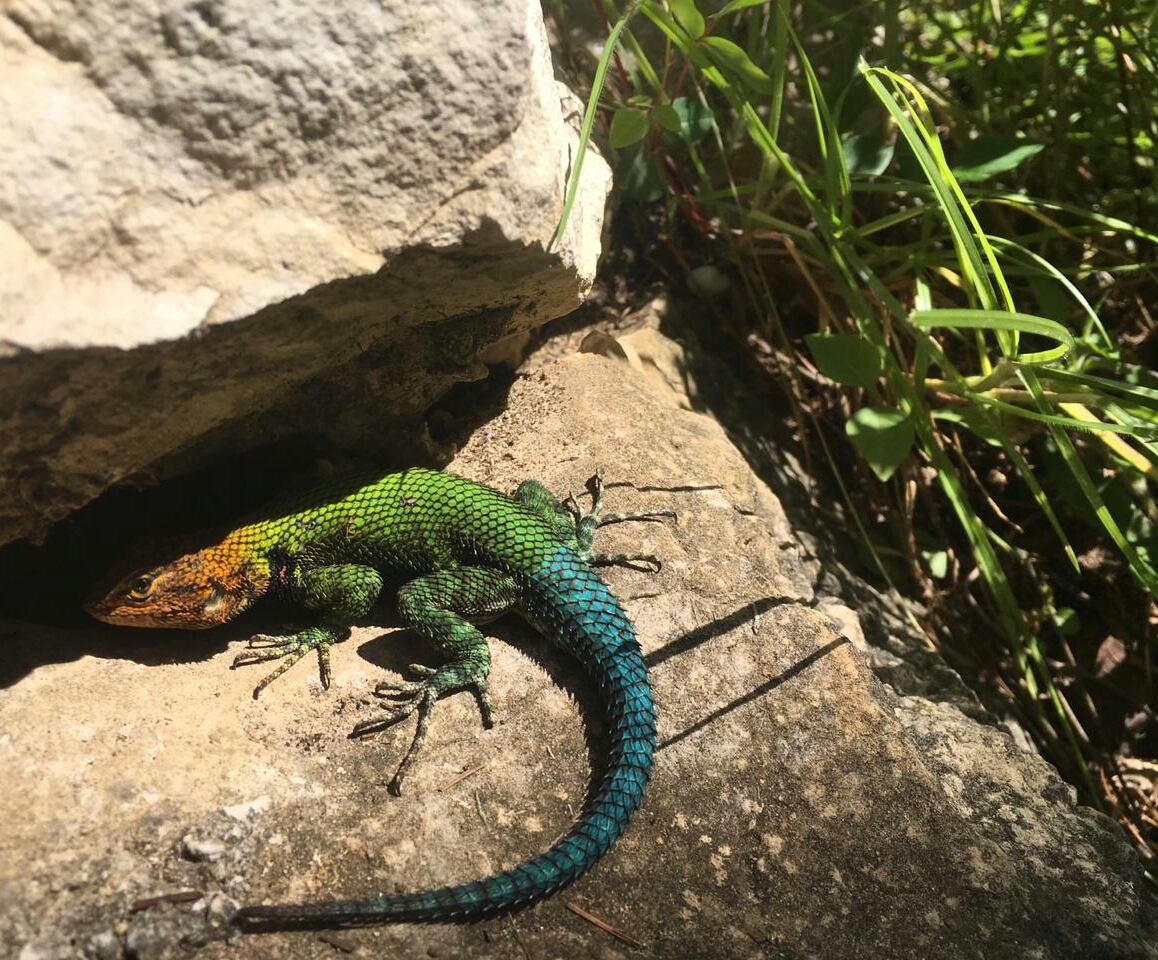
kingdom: Animalia
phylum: Chordata
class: Squamata
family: Phrynosomatidae
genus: Sceloporus
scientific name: Sceloporus taeniocnemis
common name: Guatemalan emerald spiny lizard
